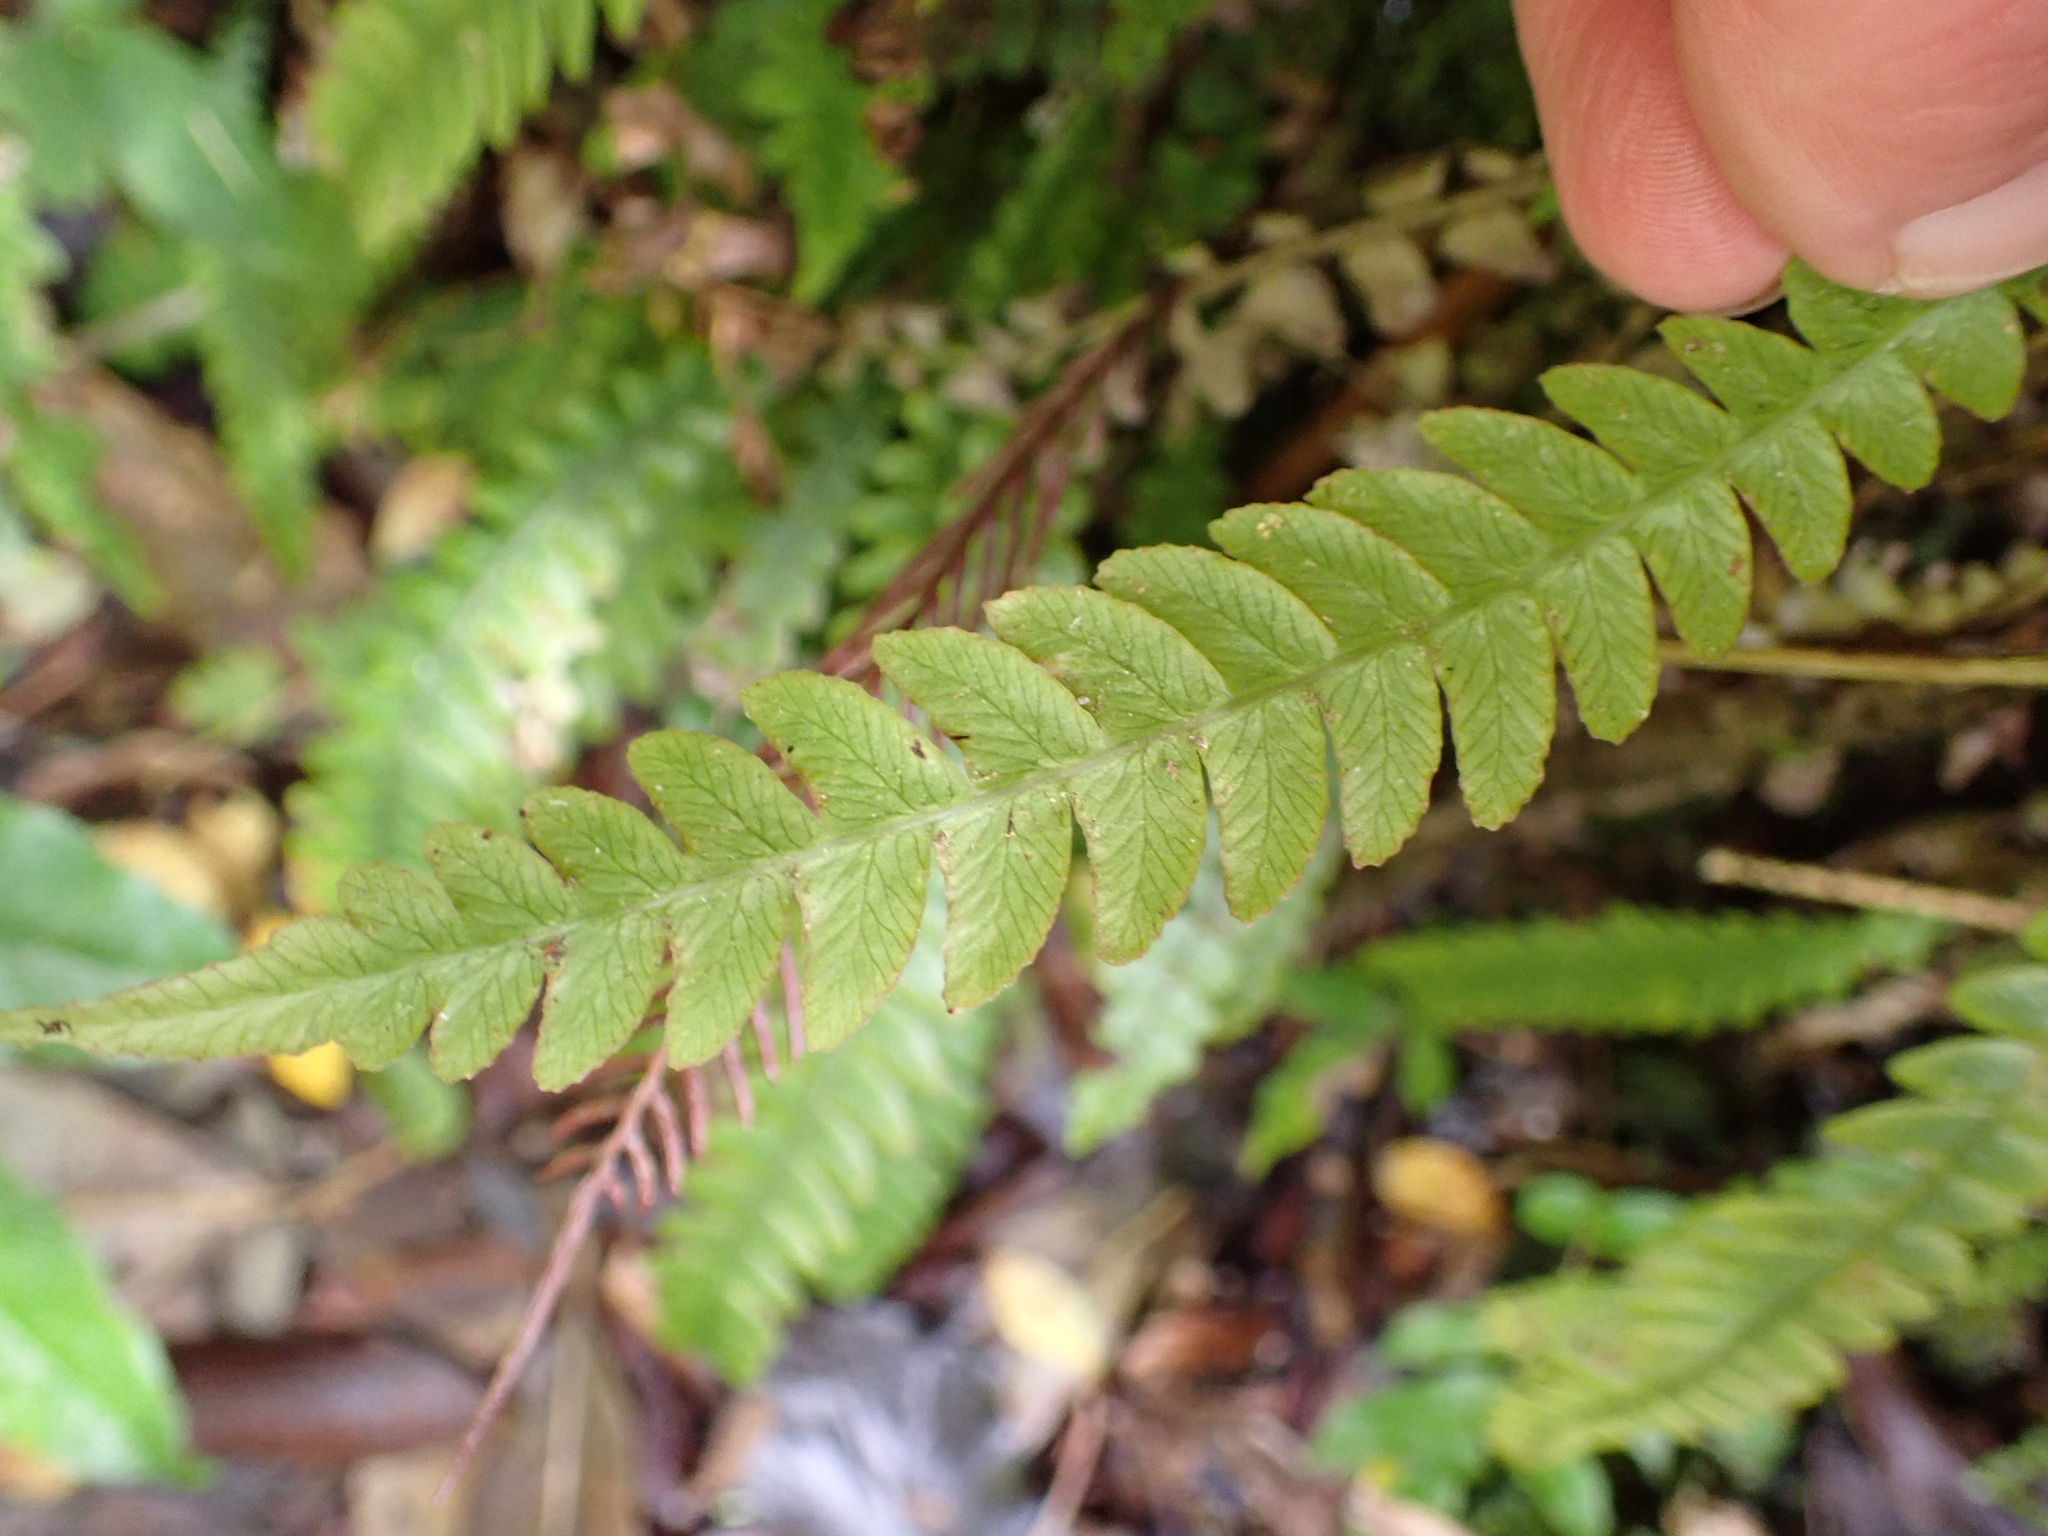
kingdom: Plantae
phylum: Tracheophyta
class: Polypodiopsida
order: Polypodiales
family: Blechnaceae
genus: Austroblechnum
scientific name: Austroblechnum lanceolatum
